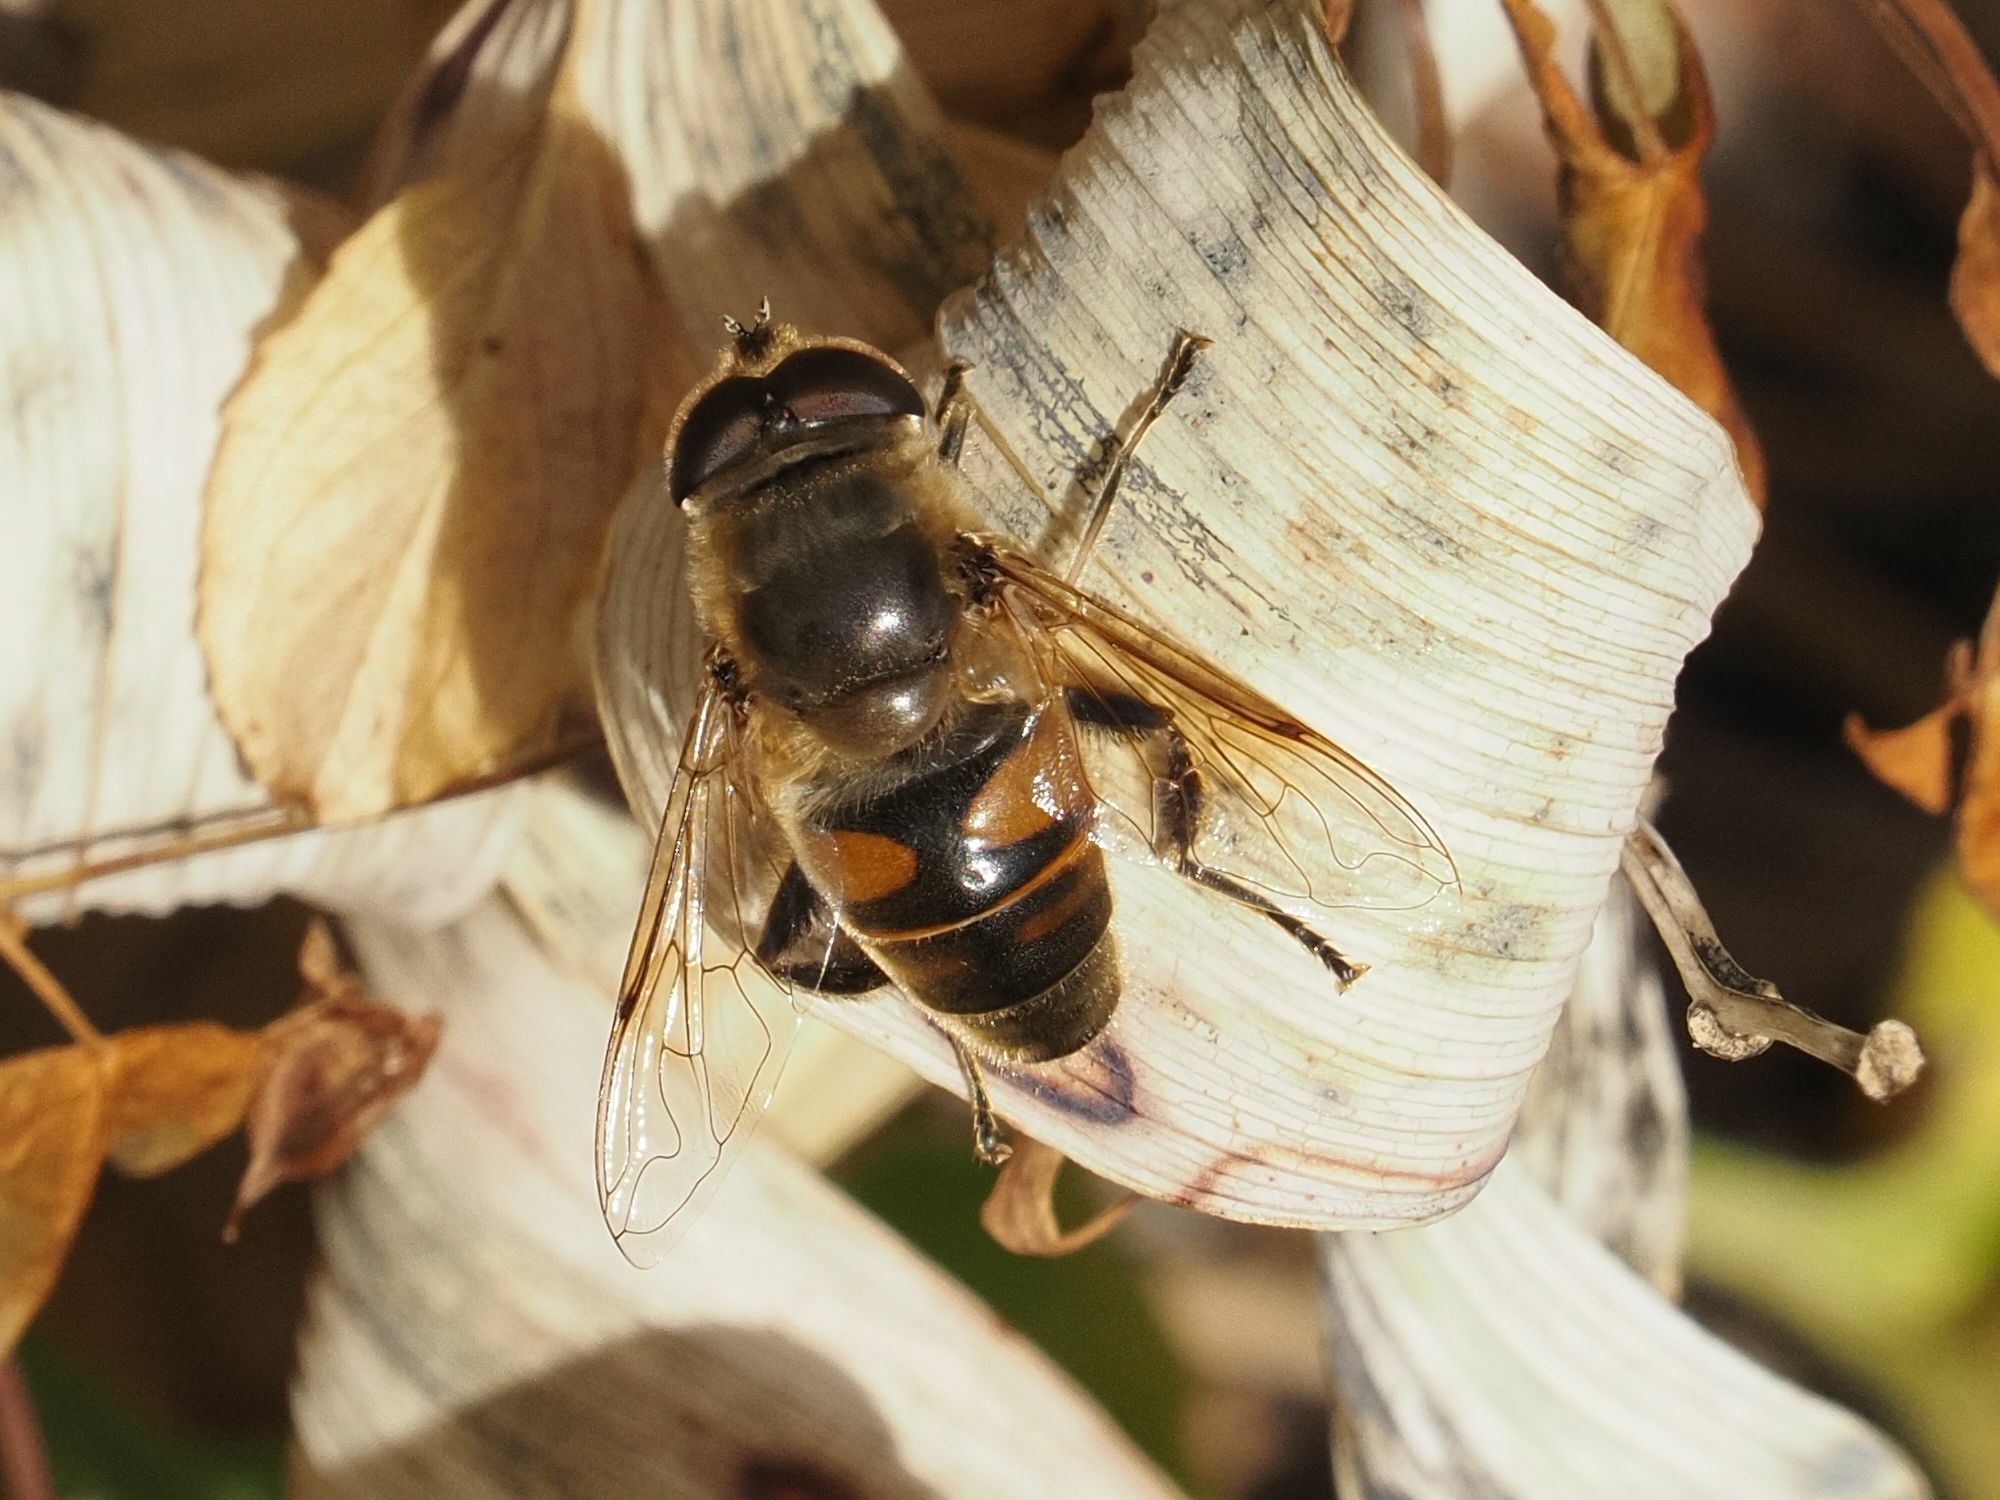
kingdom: Animalia
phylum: Arthropoda
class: Insecta
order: Diptera
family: Syrphidae
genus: Eristalis
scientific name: Eristalis tenax
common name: Drone fly
